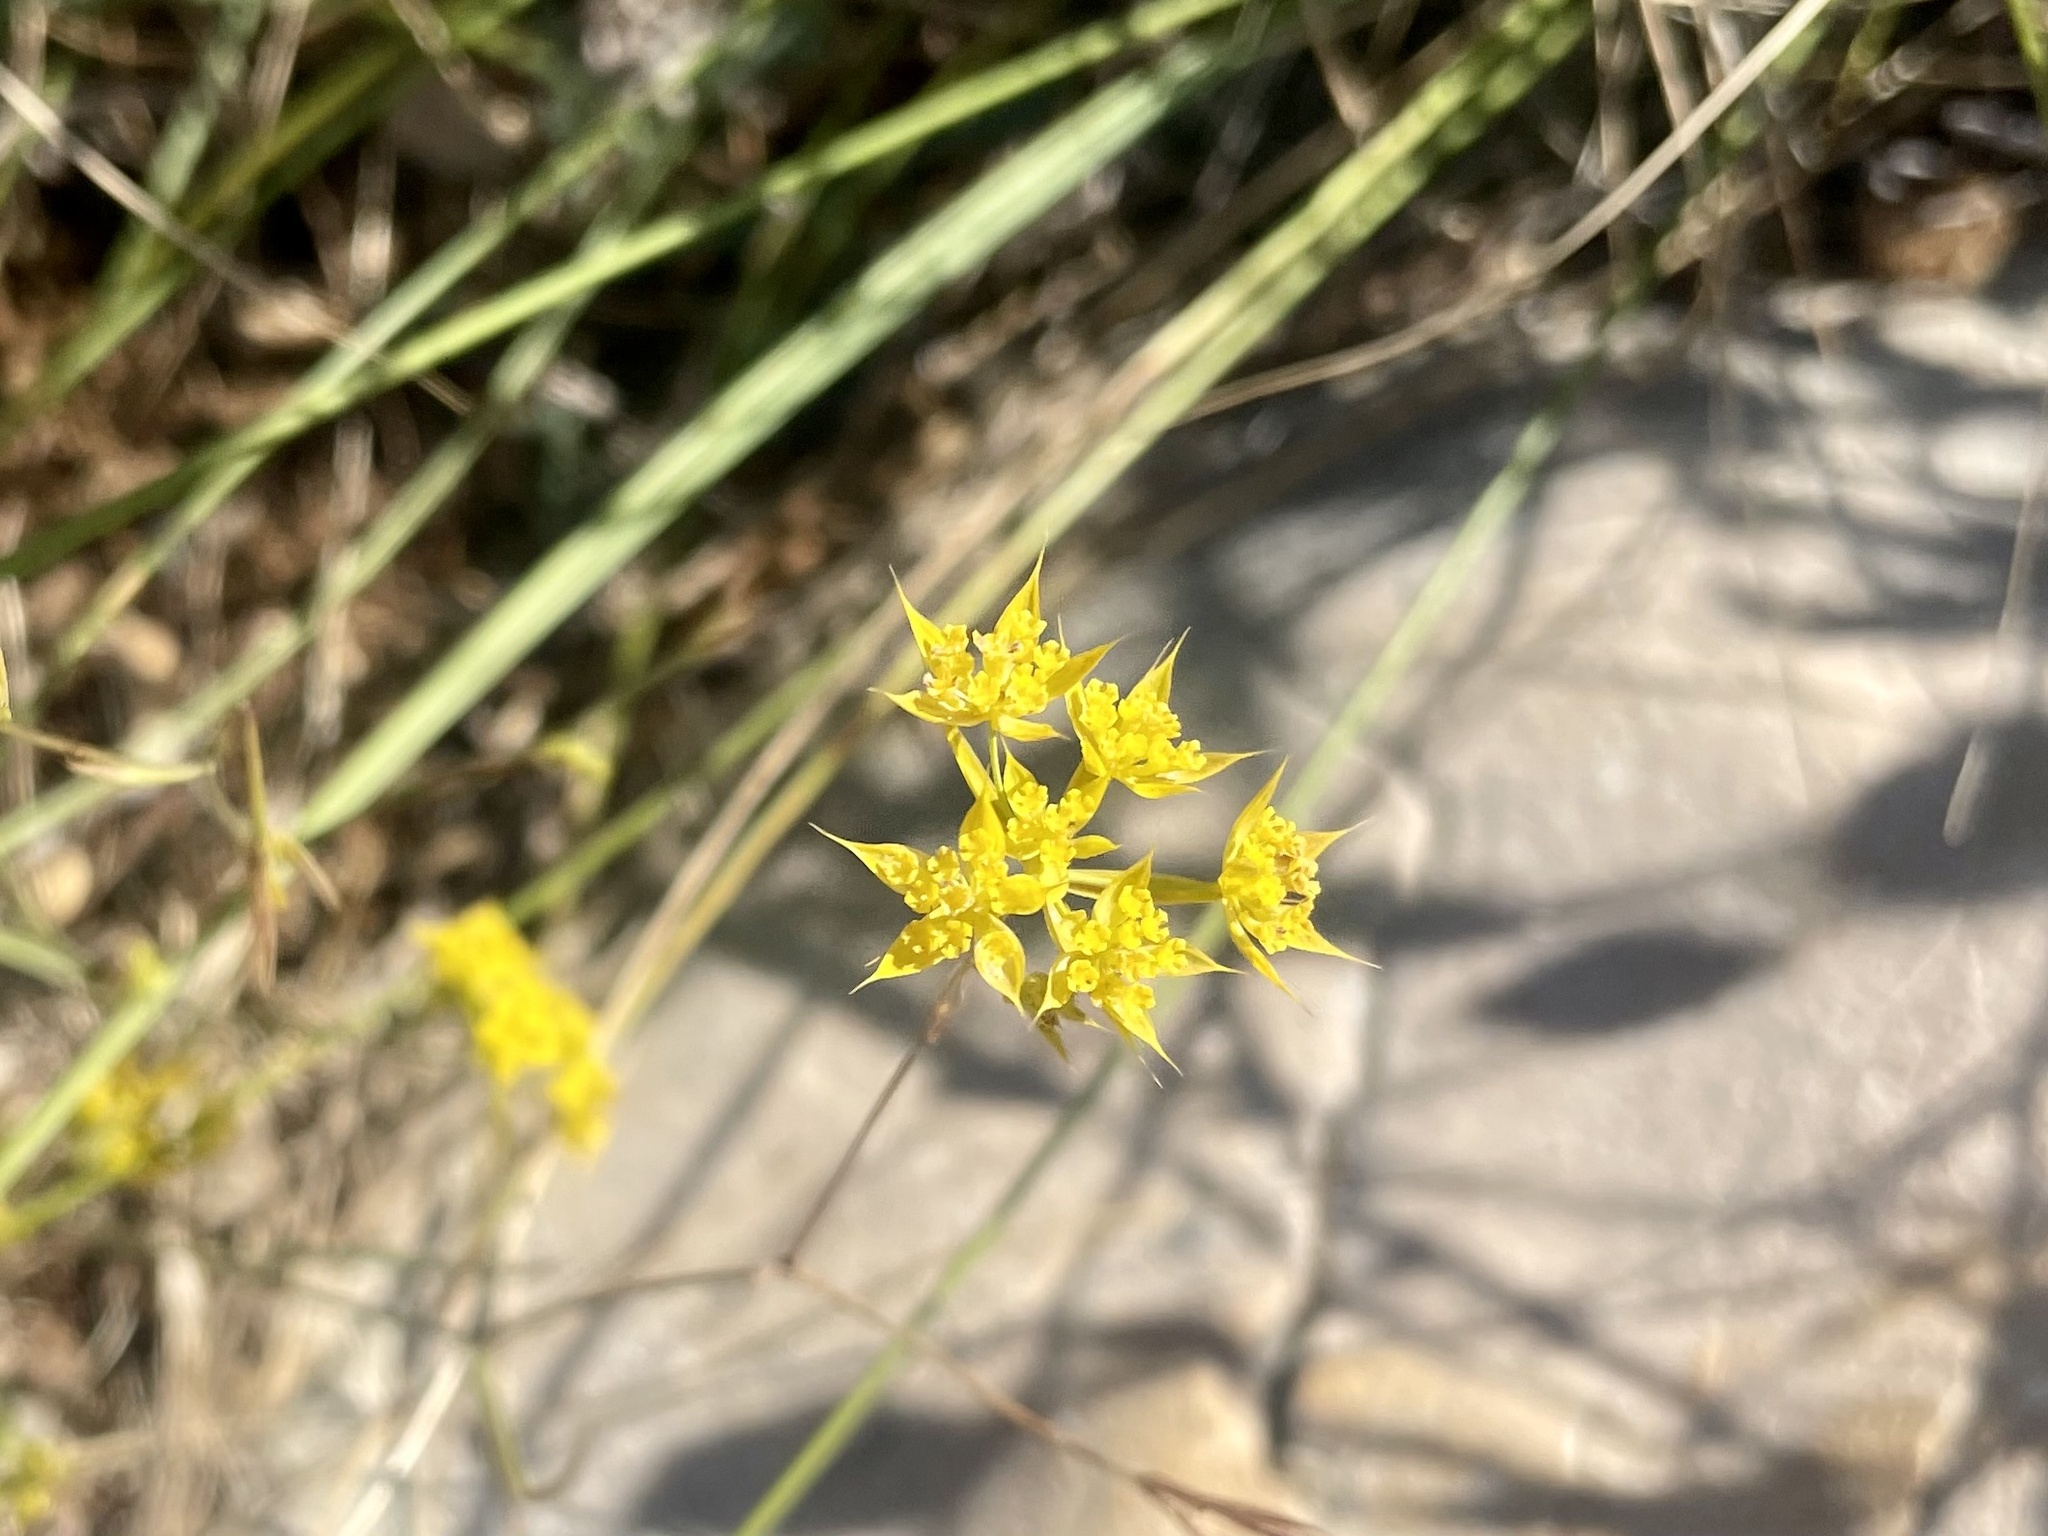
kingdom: Plantae
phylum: Tracheophyta
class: Magnoliopsida
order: Apiales
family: Apiaceae
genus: Bupleurum
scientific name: Bupleurum veronense
